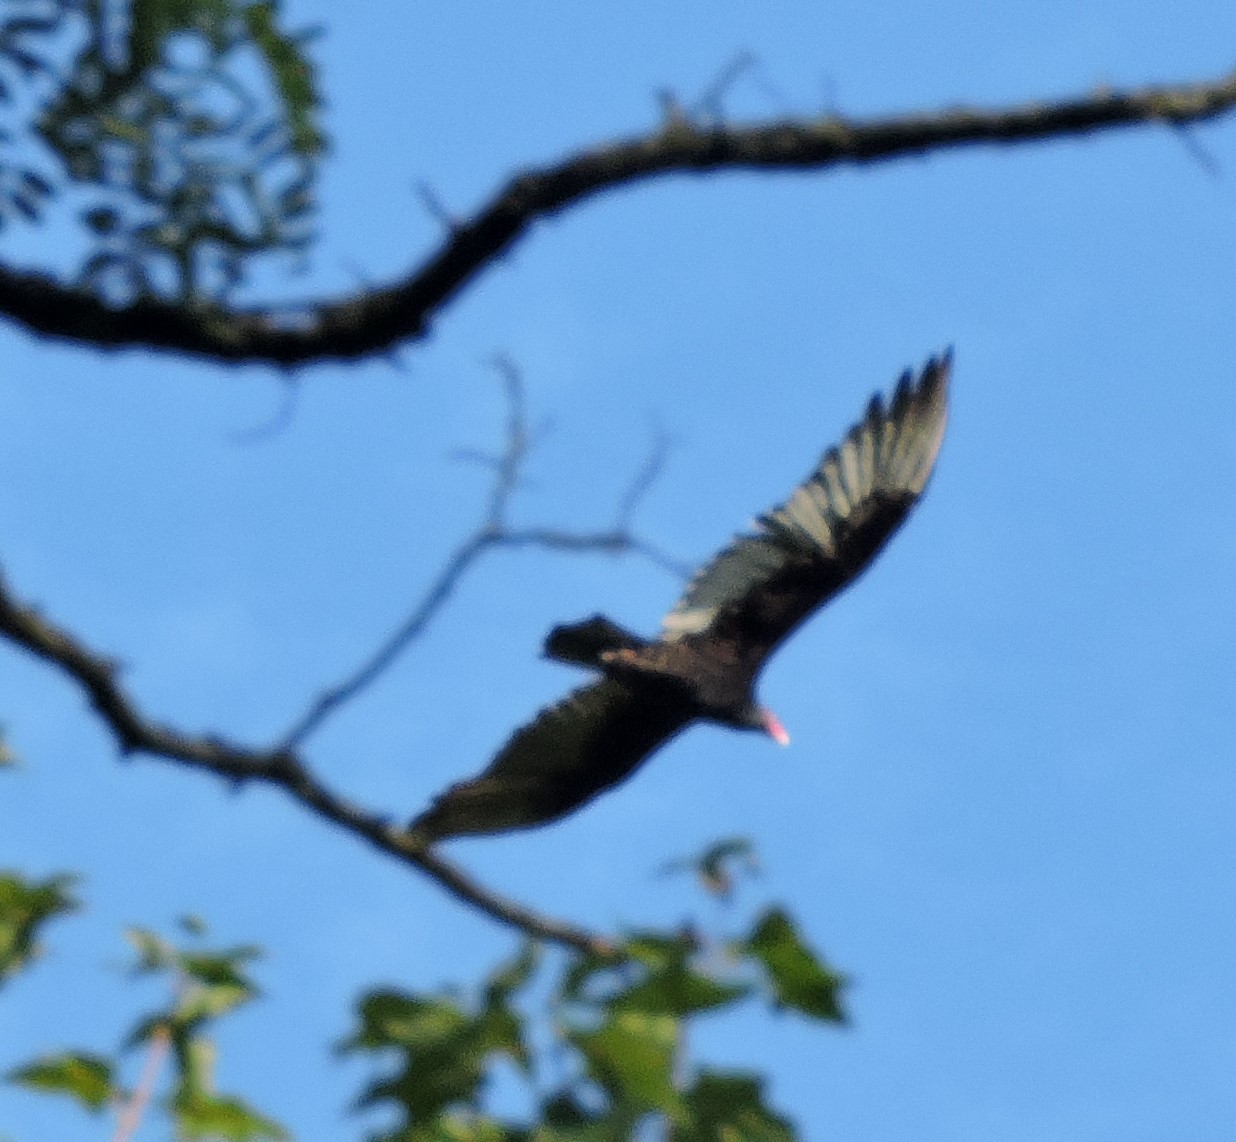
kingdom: Animalia
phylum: Chordata
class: Aves
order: Accipitriformes
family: Cathartidae
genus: Cathartes
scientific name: Cathartes aura
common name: Turkey vulture
